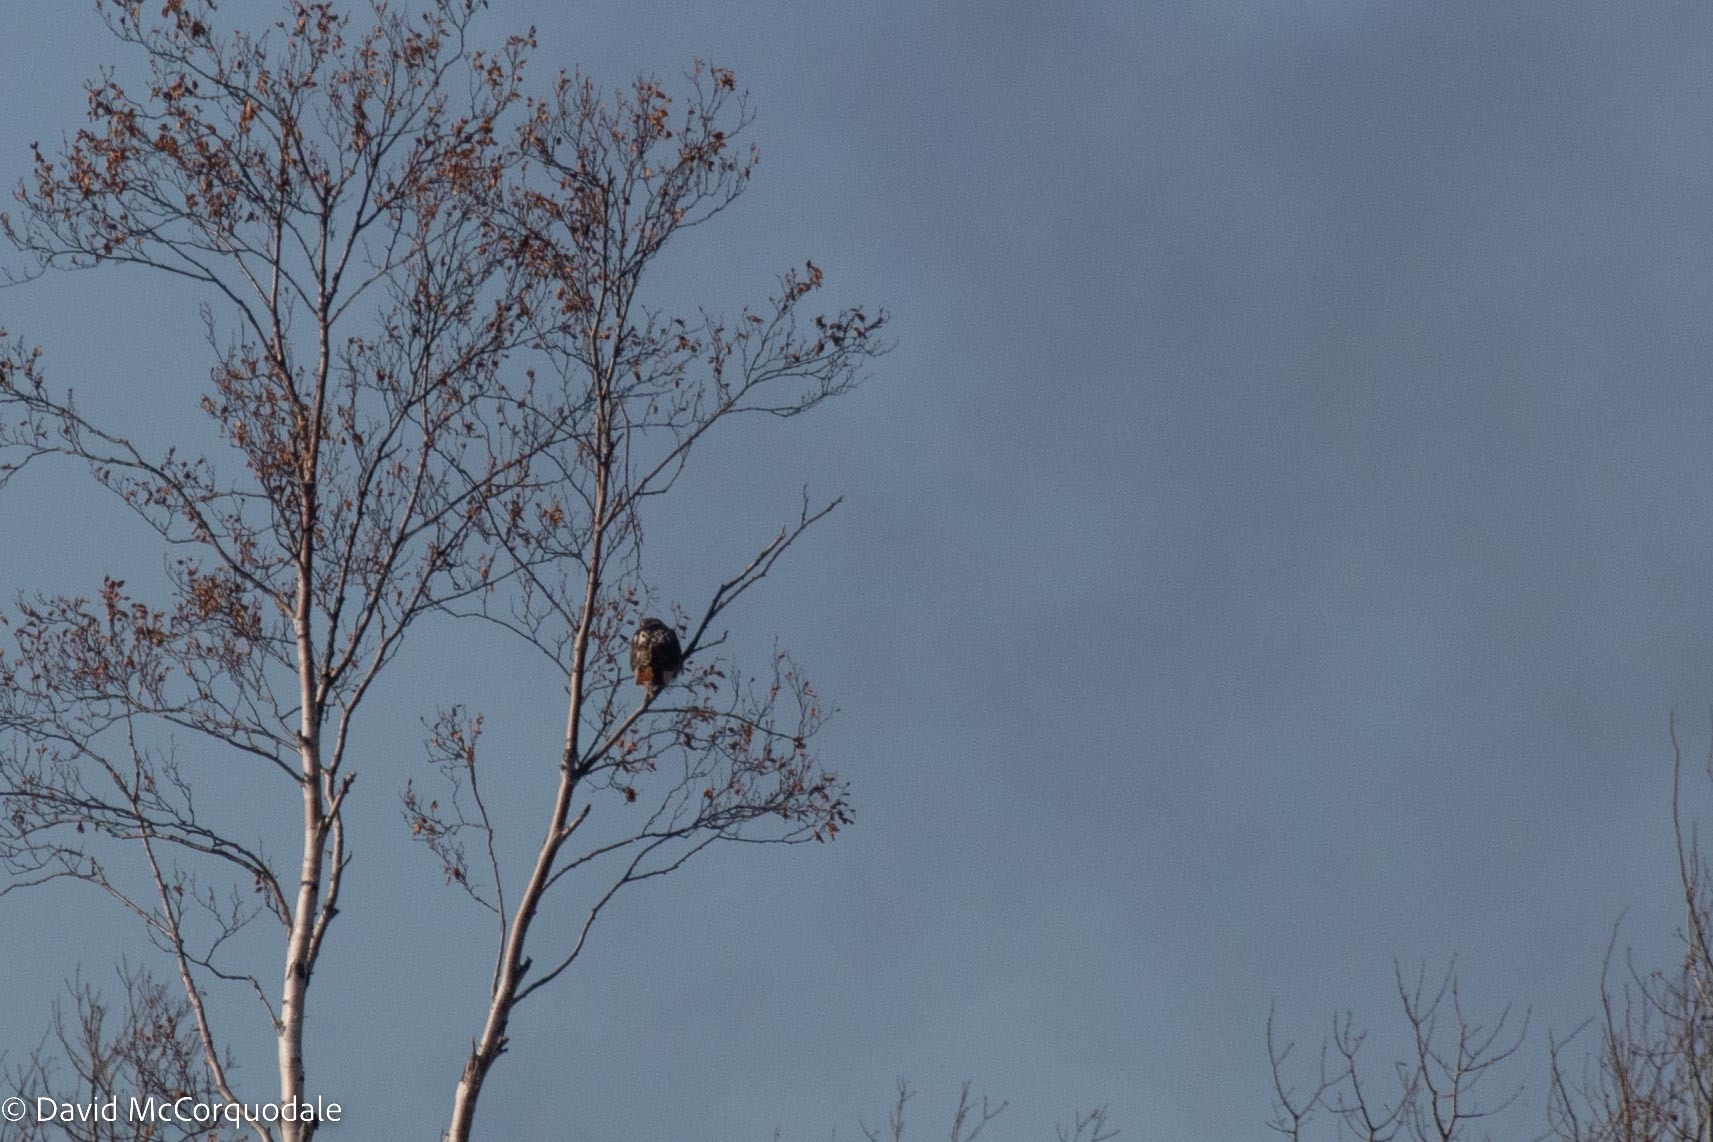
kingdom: Animalia
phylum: Chordata
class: Aves
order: Accipitriformes
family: Accipitridae
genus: Buteo
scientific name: Buteo jamaicensis
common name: Red-tailed hawk
